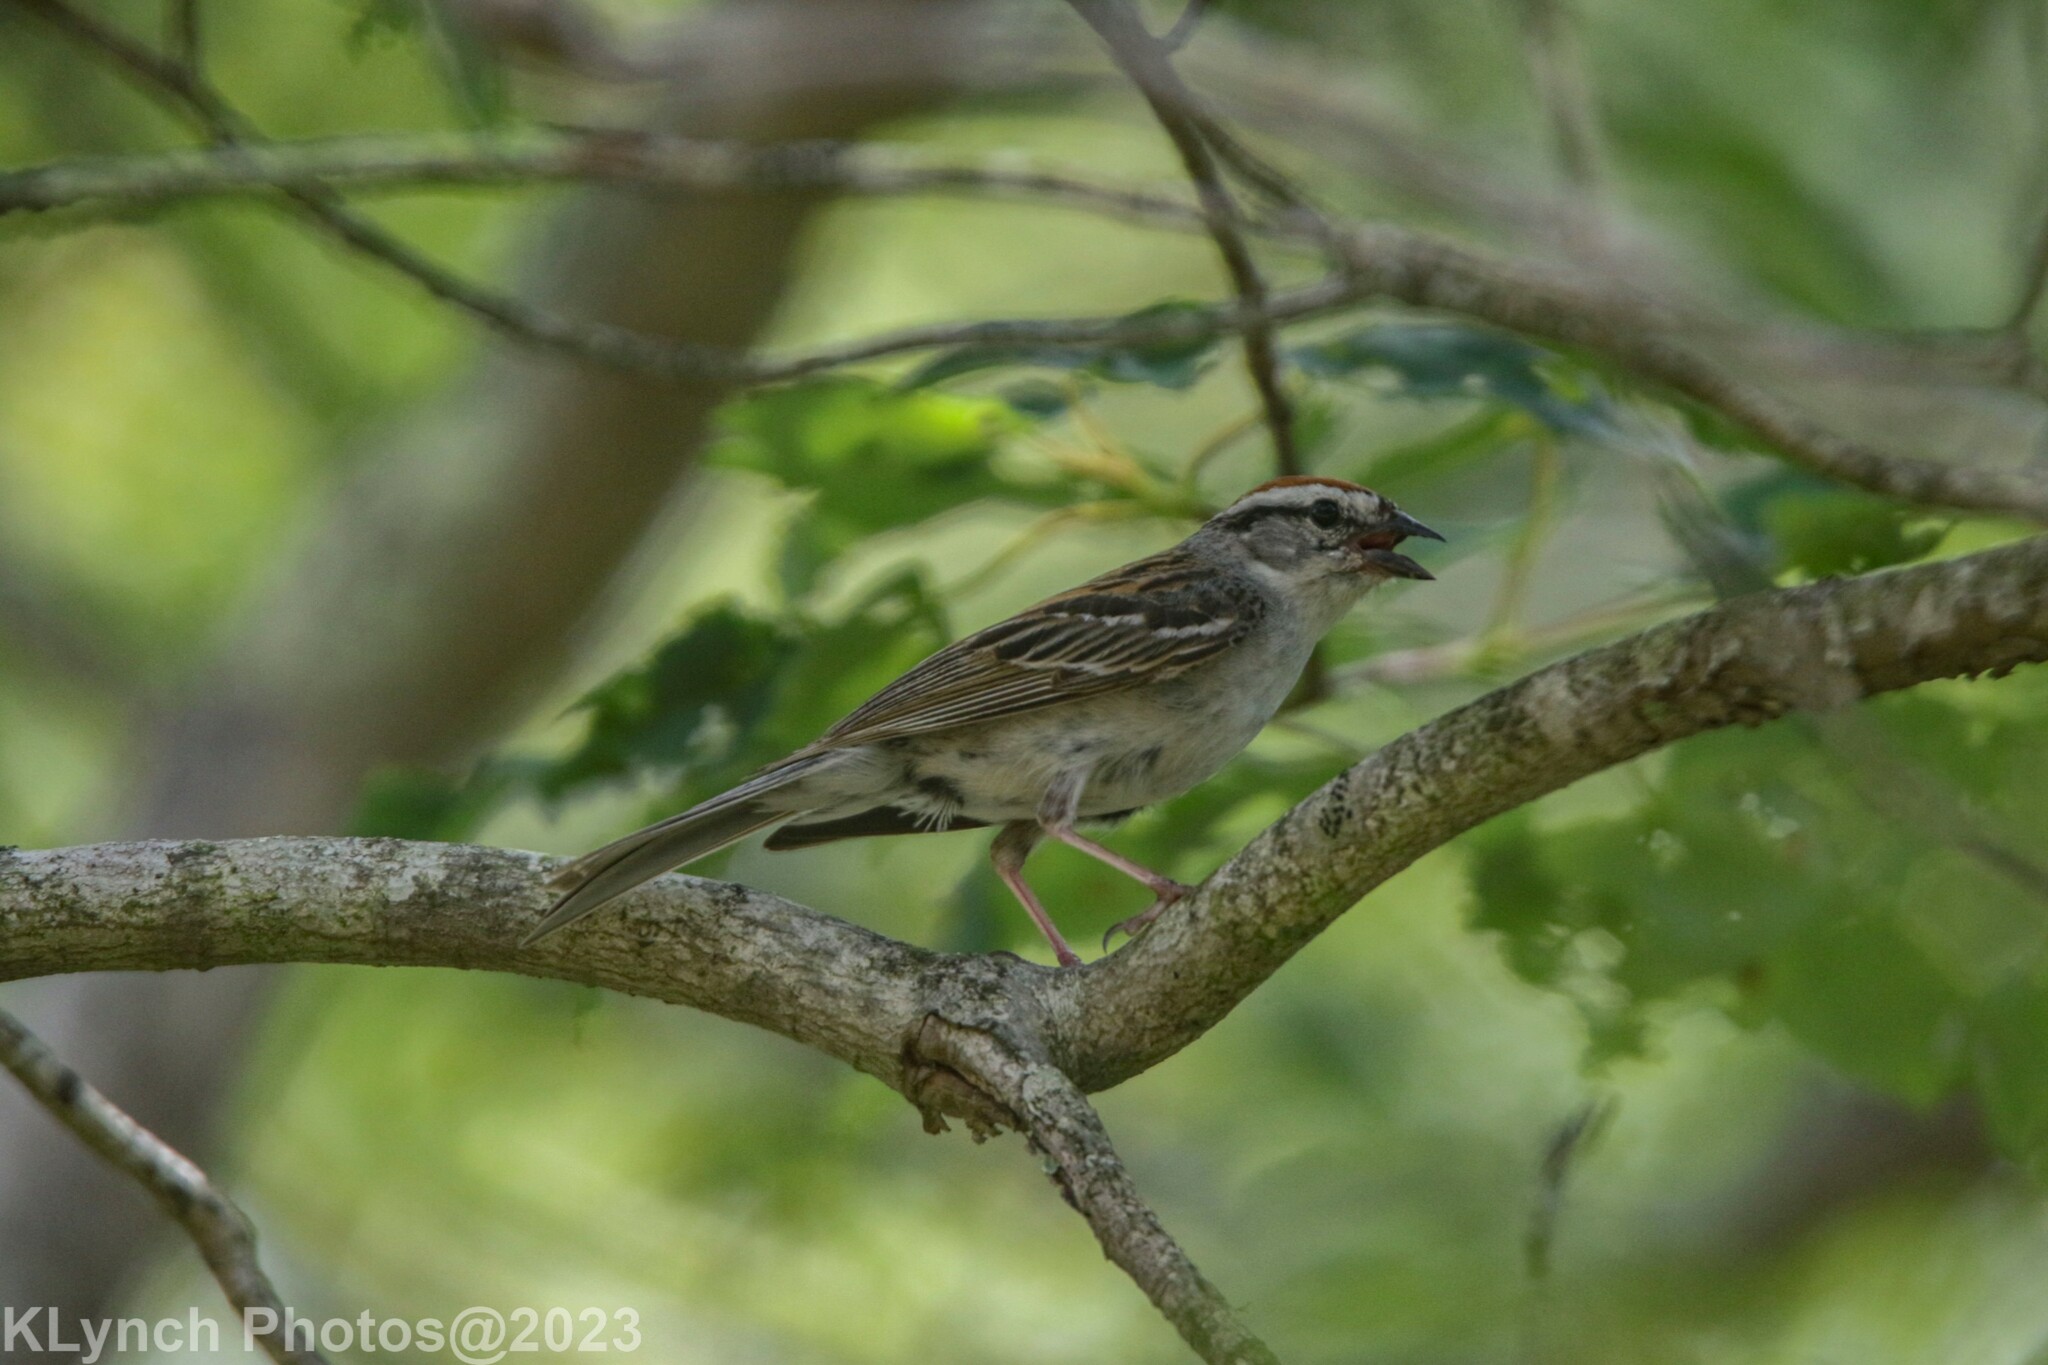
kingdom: Animalia
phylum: Chordata
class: Aves
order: Passeriformes
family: Passerellidae
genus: Spizella
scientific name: Spizella passerina
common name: Chipping sparrow
